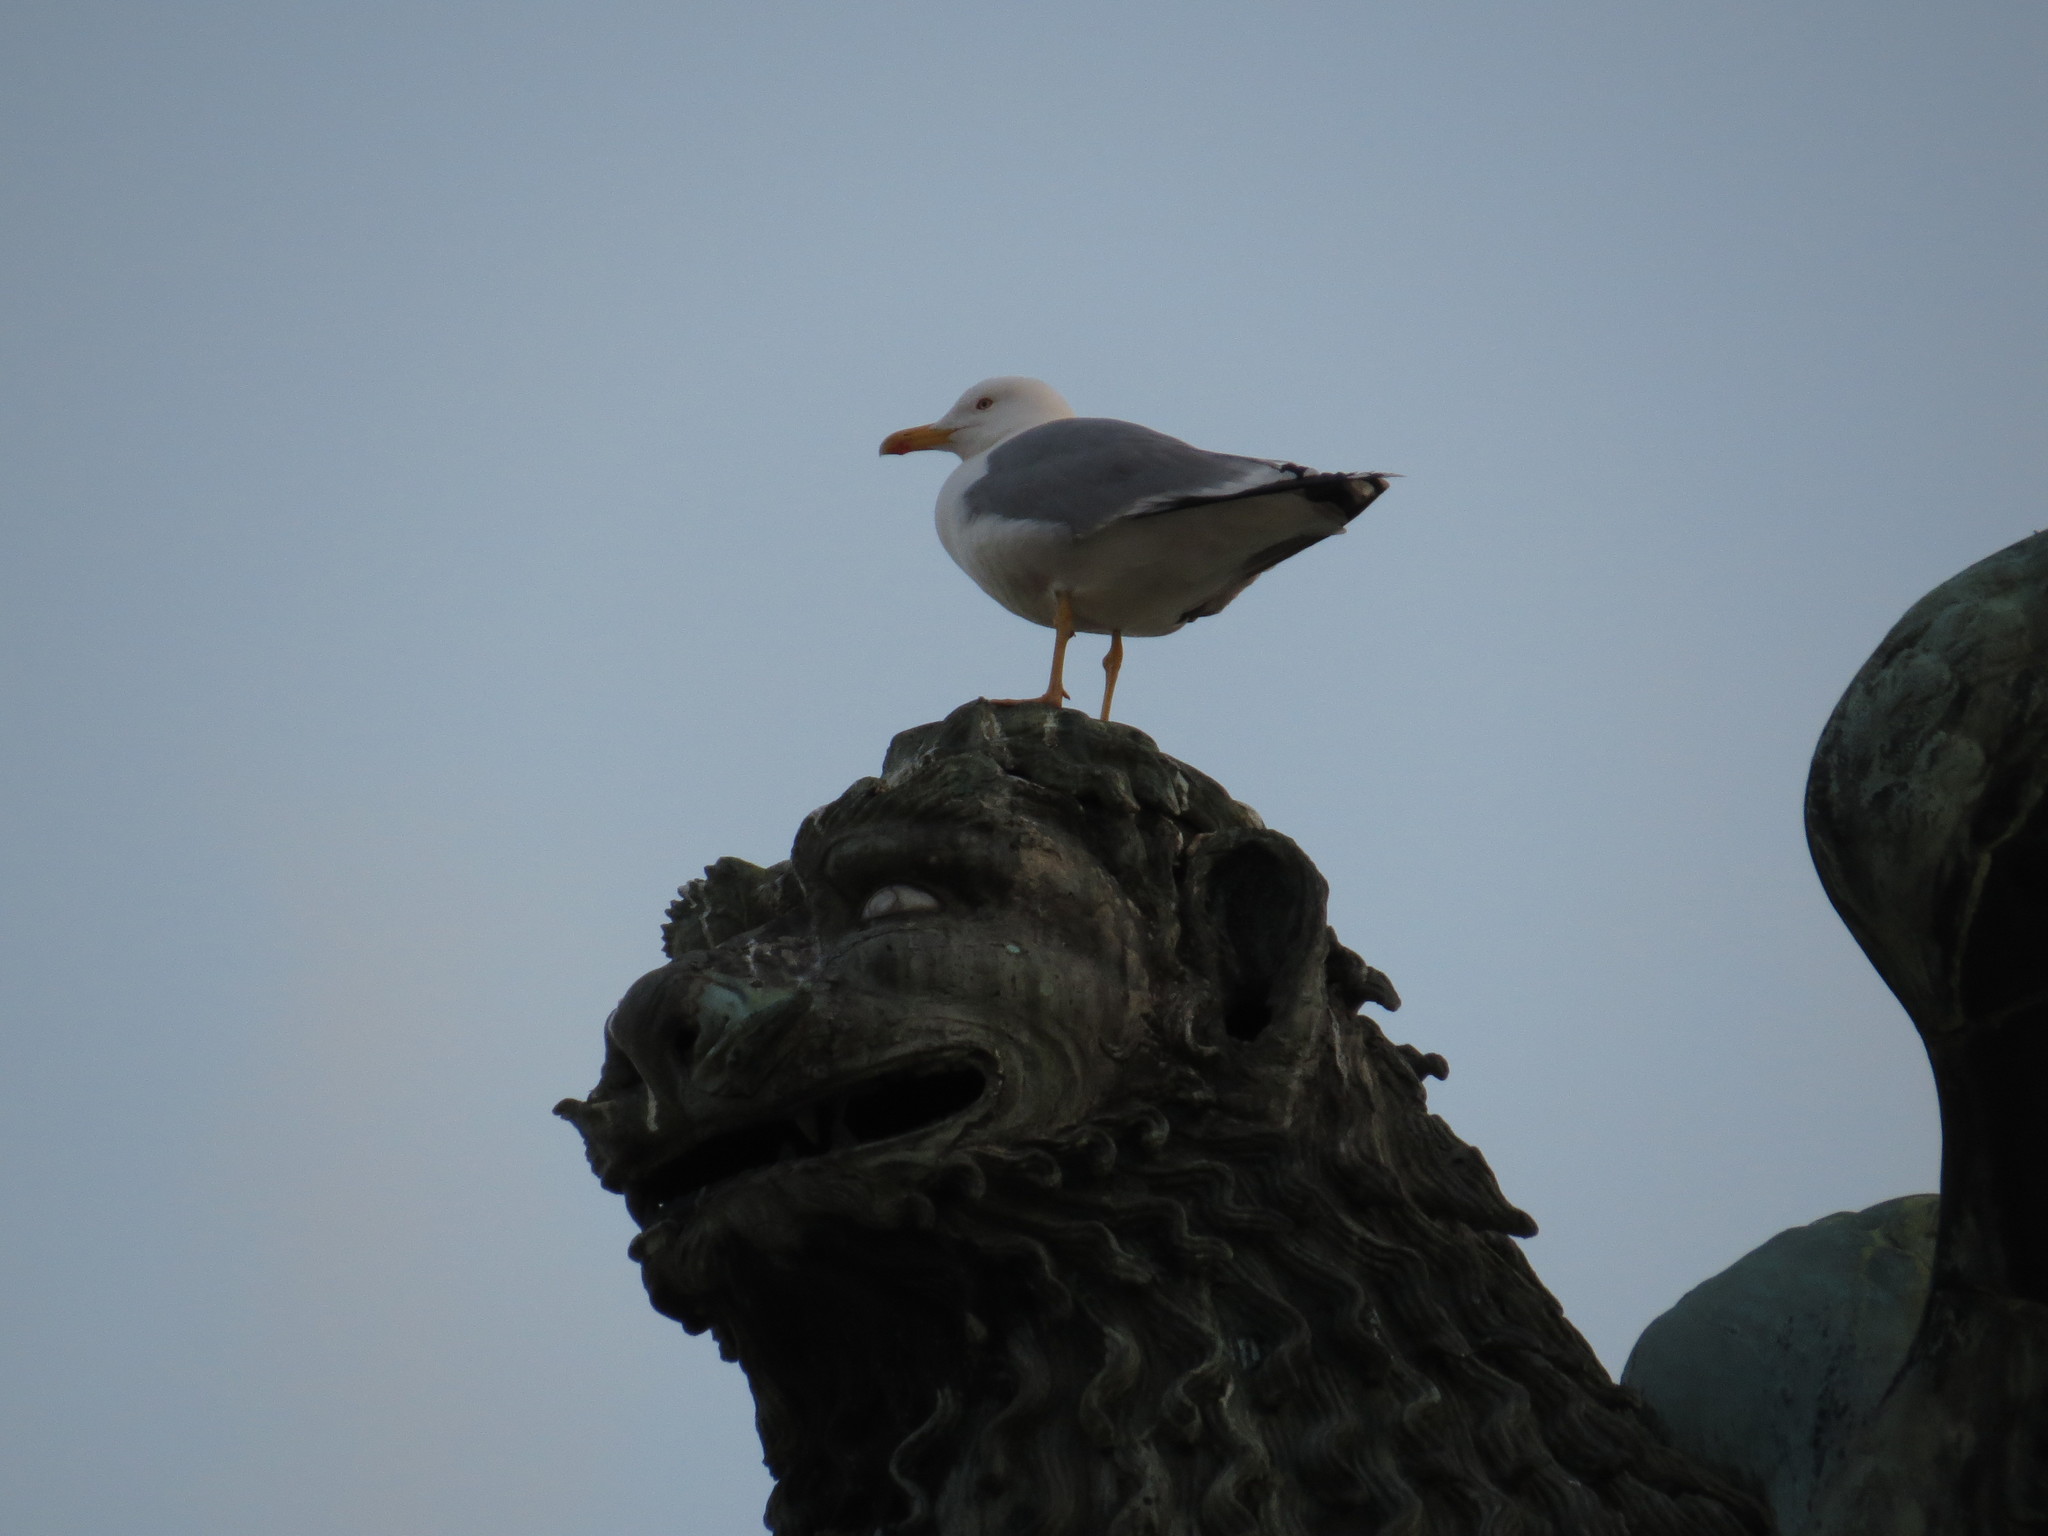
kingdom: Animalia
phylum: Chordata
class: Aves
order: Charadriiformes
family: Laridae
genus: Larus
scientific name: Larus michahellis
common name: Yellow-legged gull
